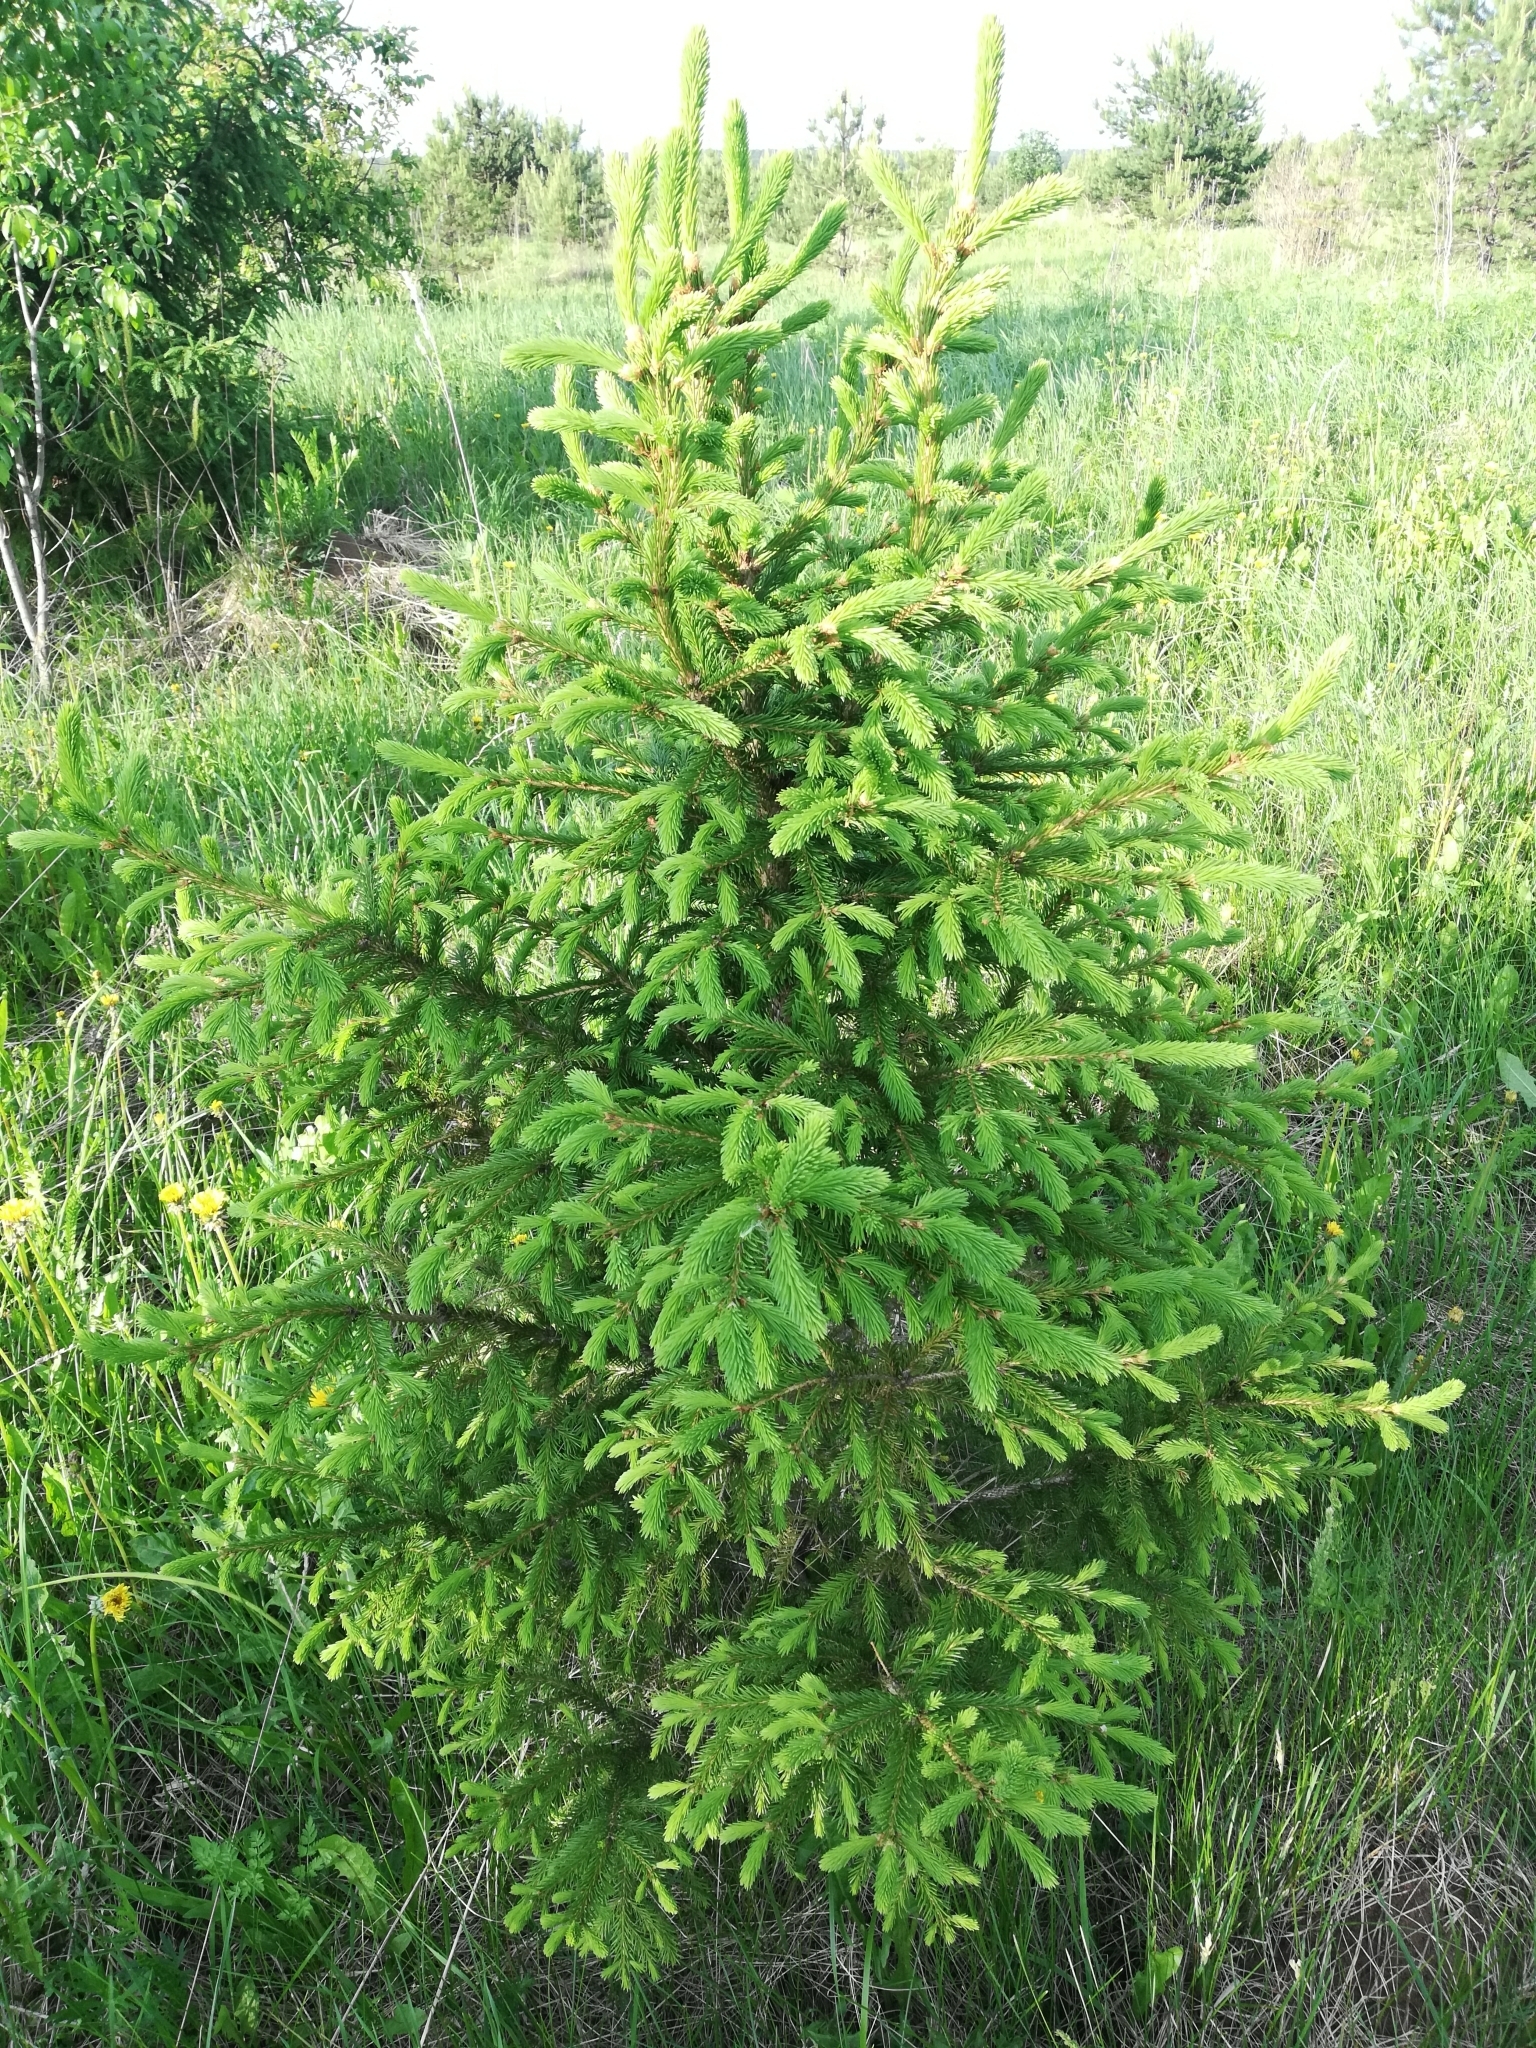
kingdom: Plantae
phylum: Tracheophyta
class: Pinopsida
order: Pinales
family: Pinaceae
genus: Picea
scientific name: Picea abies
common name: Norway spruce
